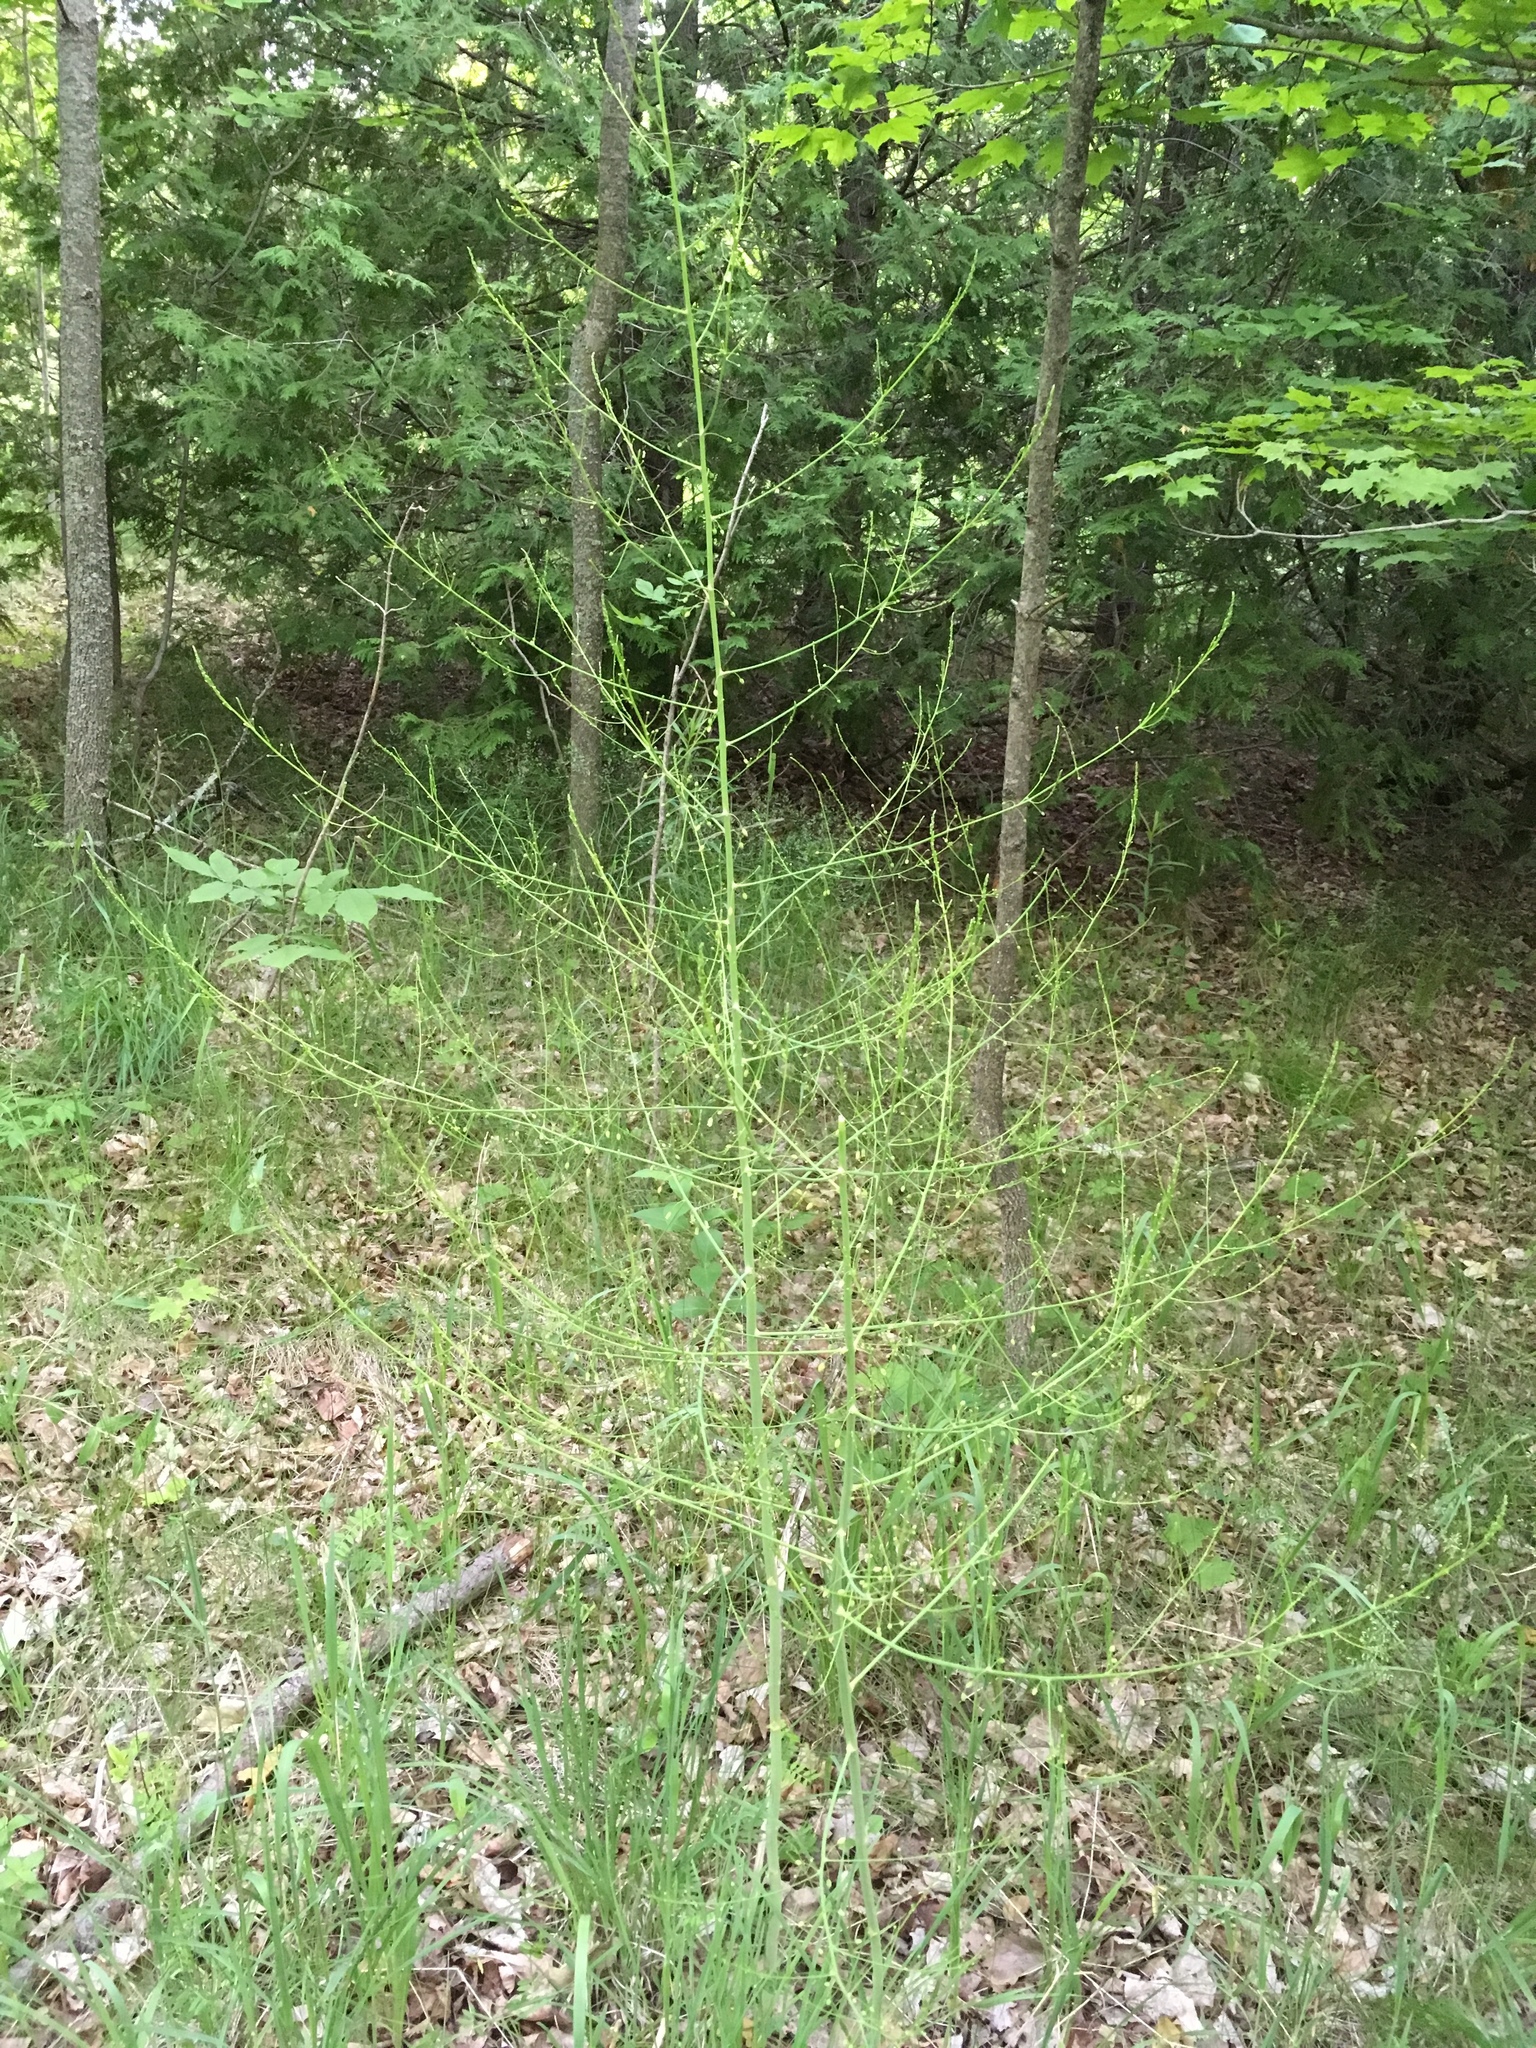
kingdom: Plantae
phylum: Tracheophyta
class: Liliopsida
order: Asparagales
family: Asparagaceae
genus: Asparagus
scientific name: Asparagus officinalis
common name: Garden asparagus
